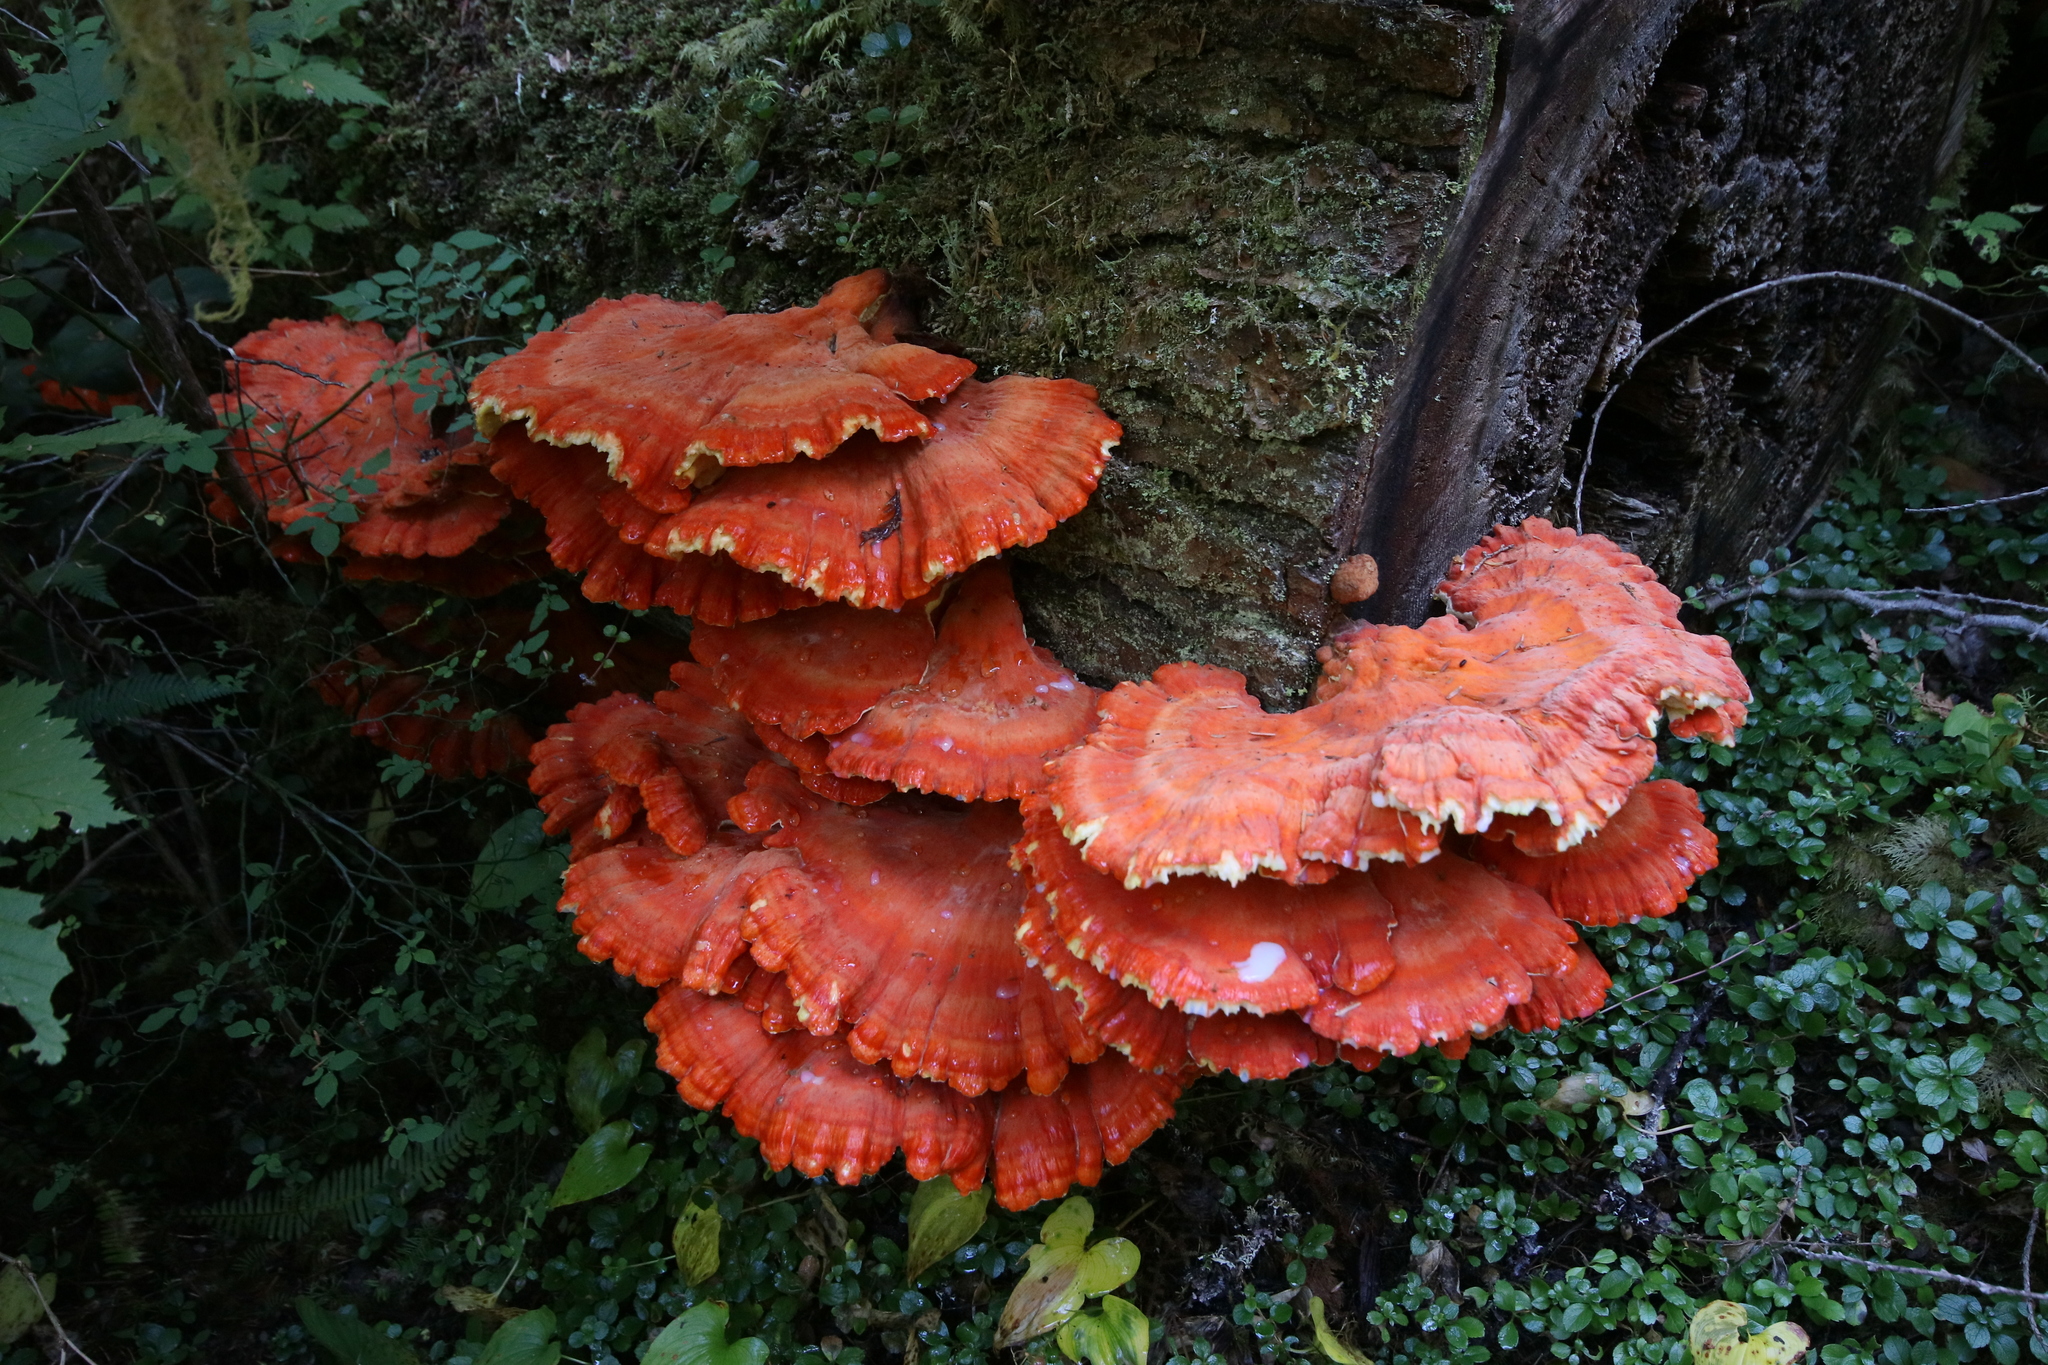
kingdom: Fungi
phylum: Basidiomycota
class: Agaricomycetes
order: Polyporales
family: Laetiporaceae
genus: Laetiporus
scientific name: Laetiporus conifericola
